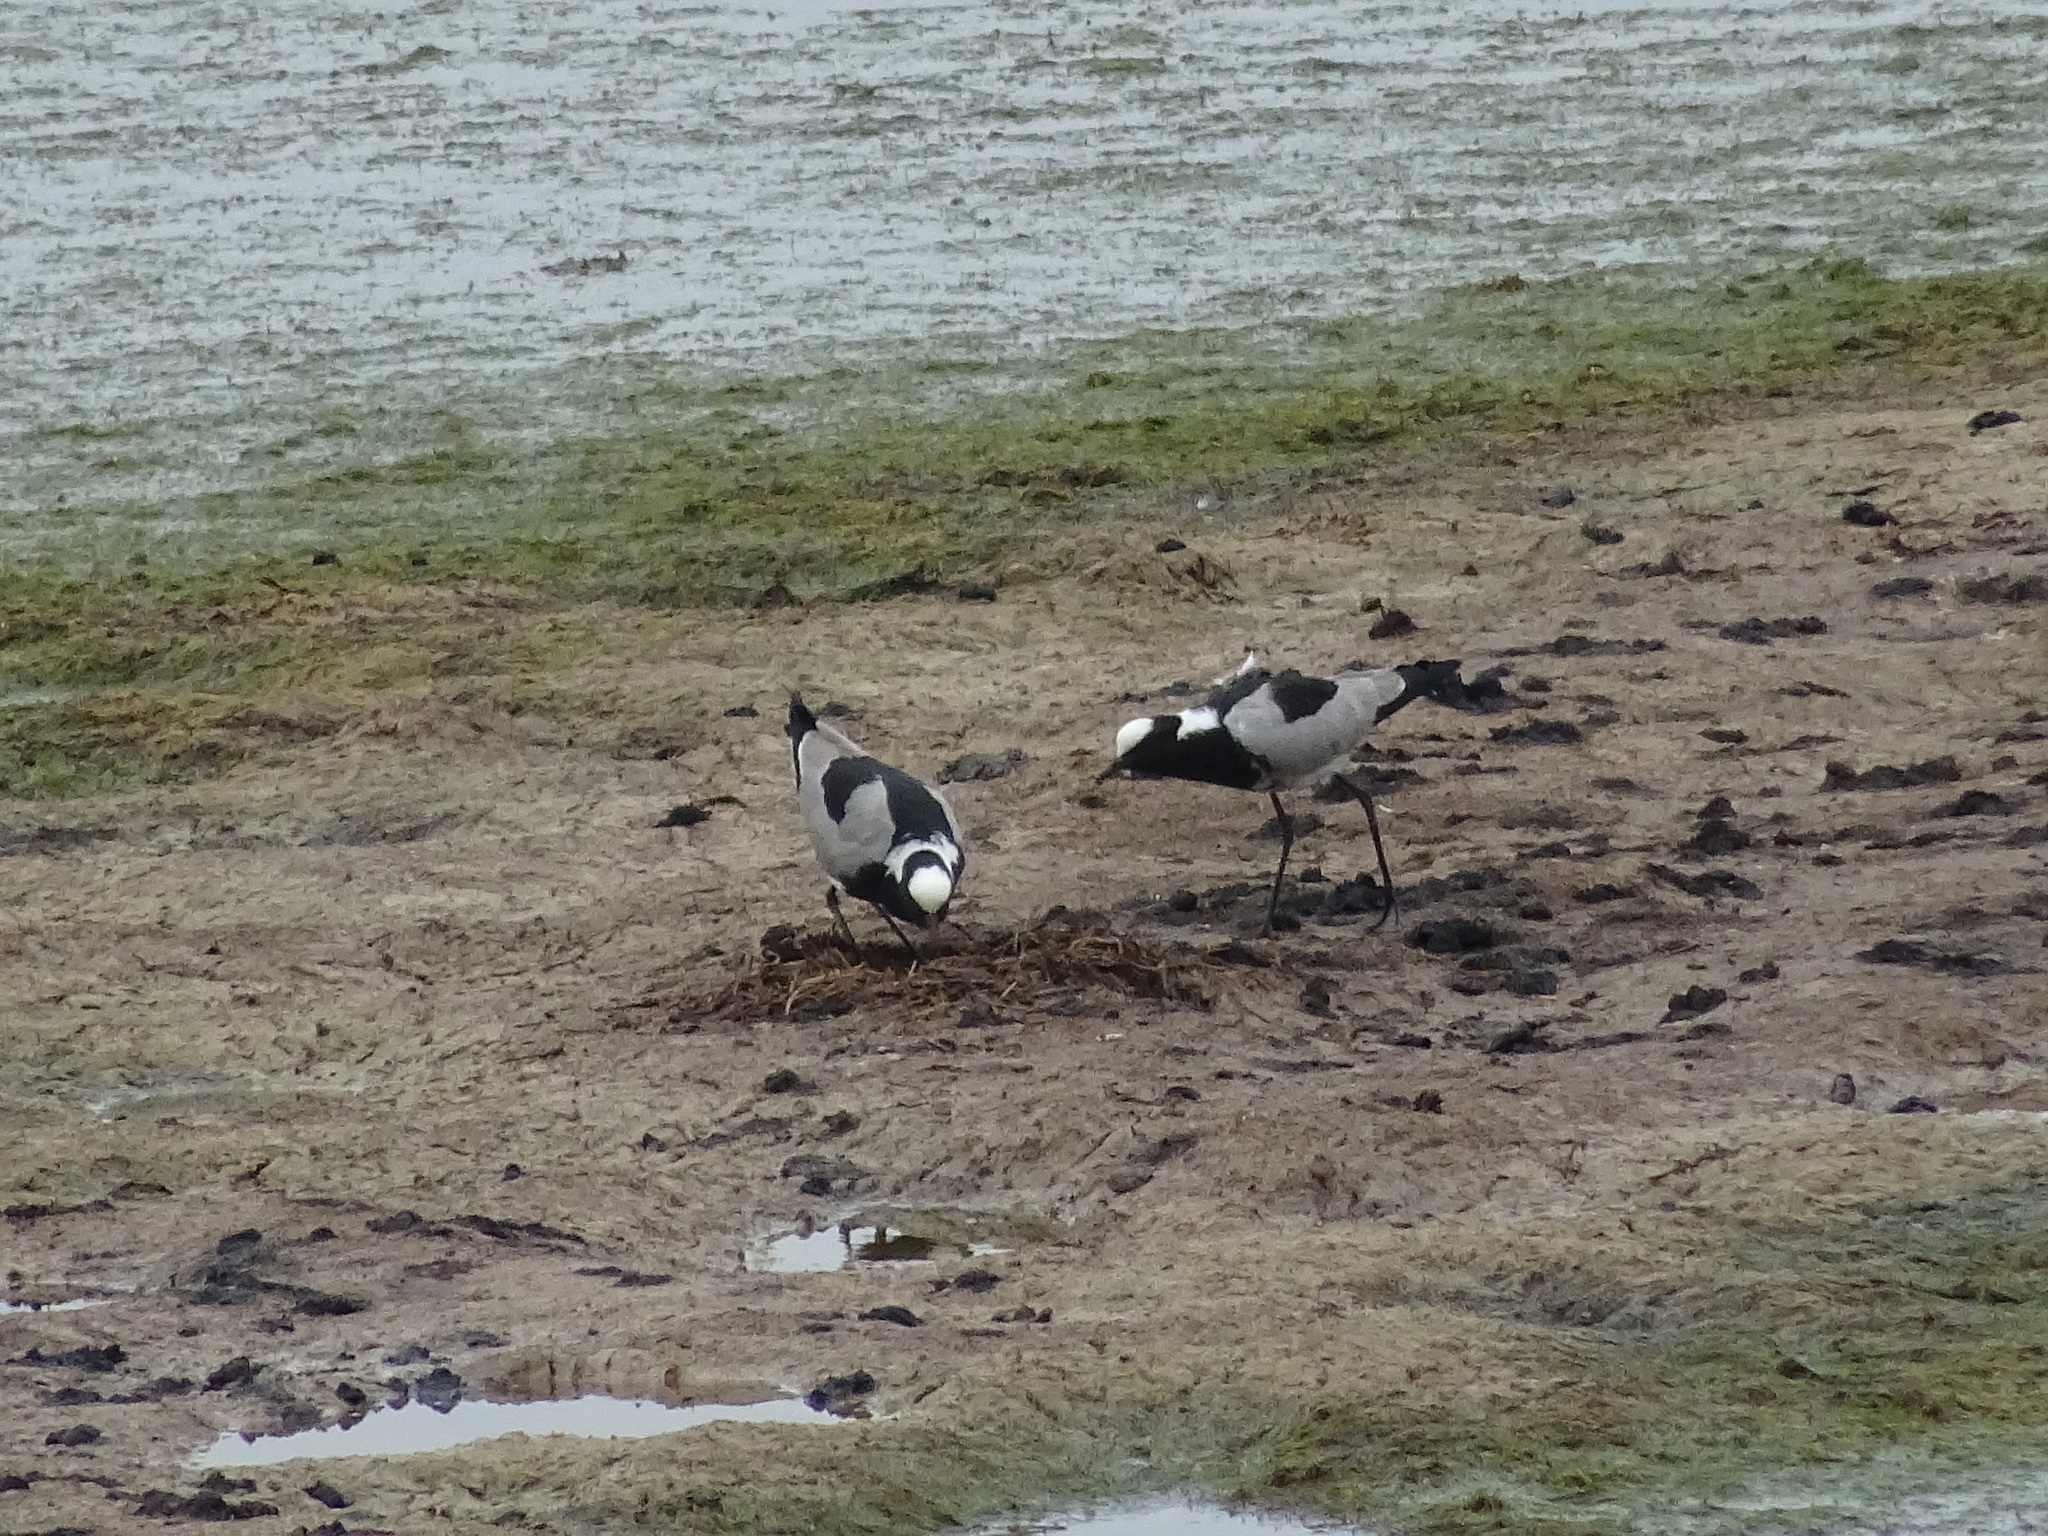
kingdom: Animalia
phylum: Chordata
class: Aves
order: Charadriiformes
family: Charadriidae
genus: Vanellus
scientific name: Vanellus armatus
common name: Blacksmith lapwing
